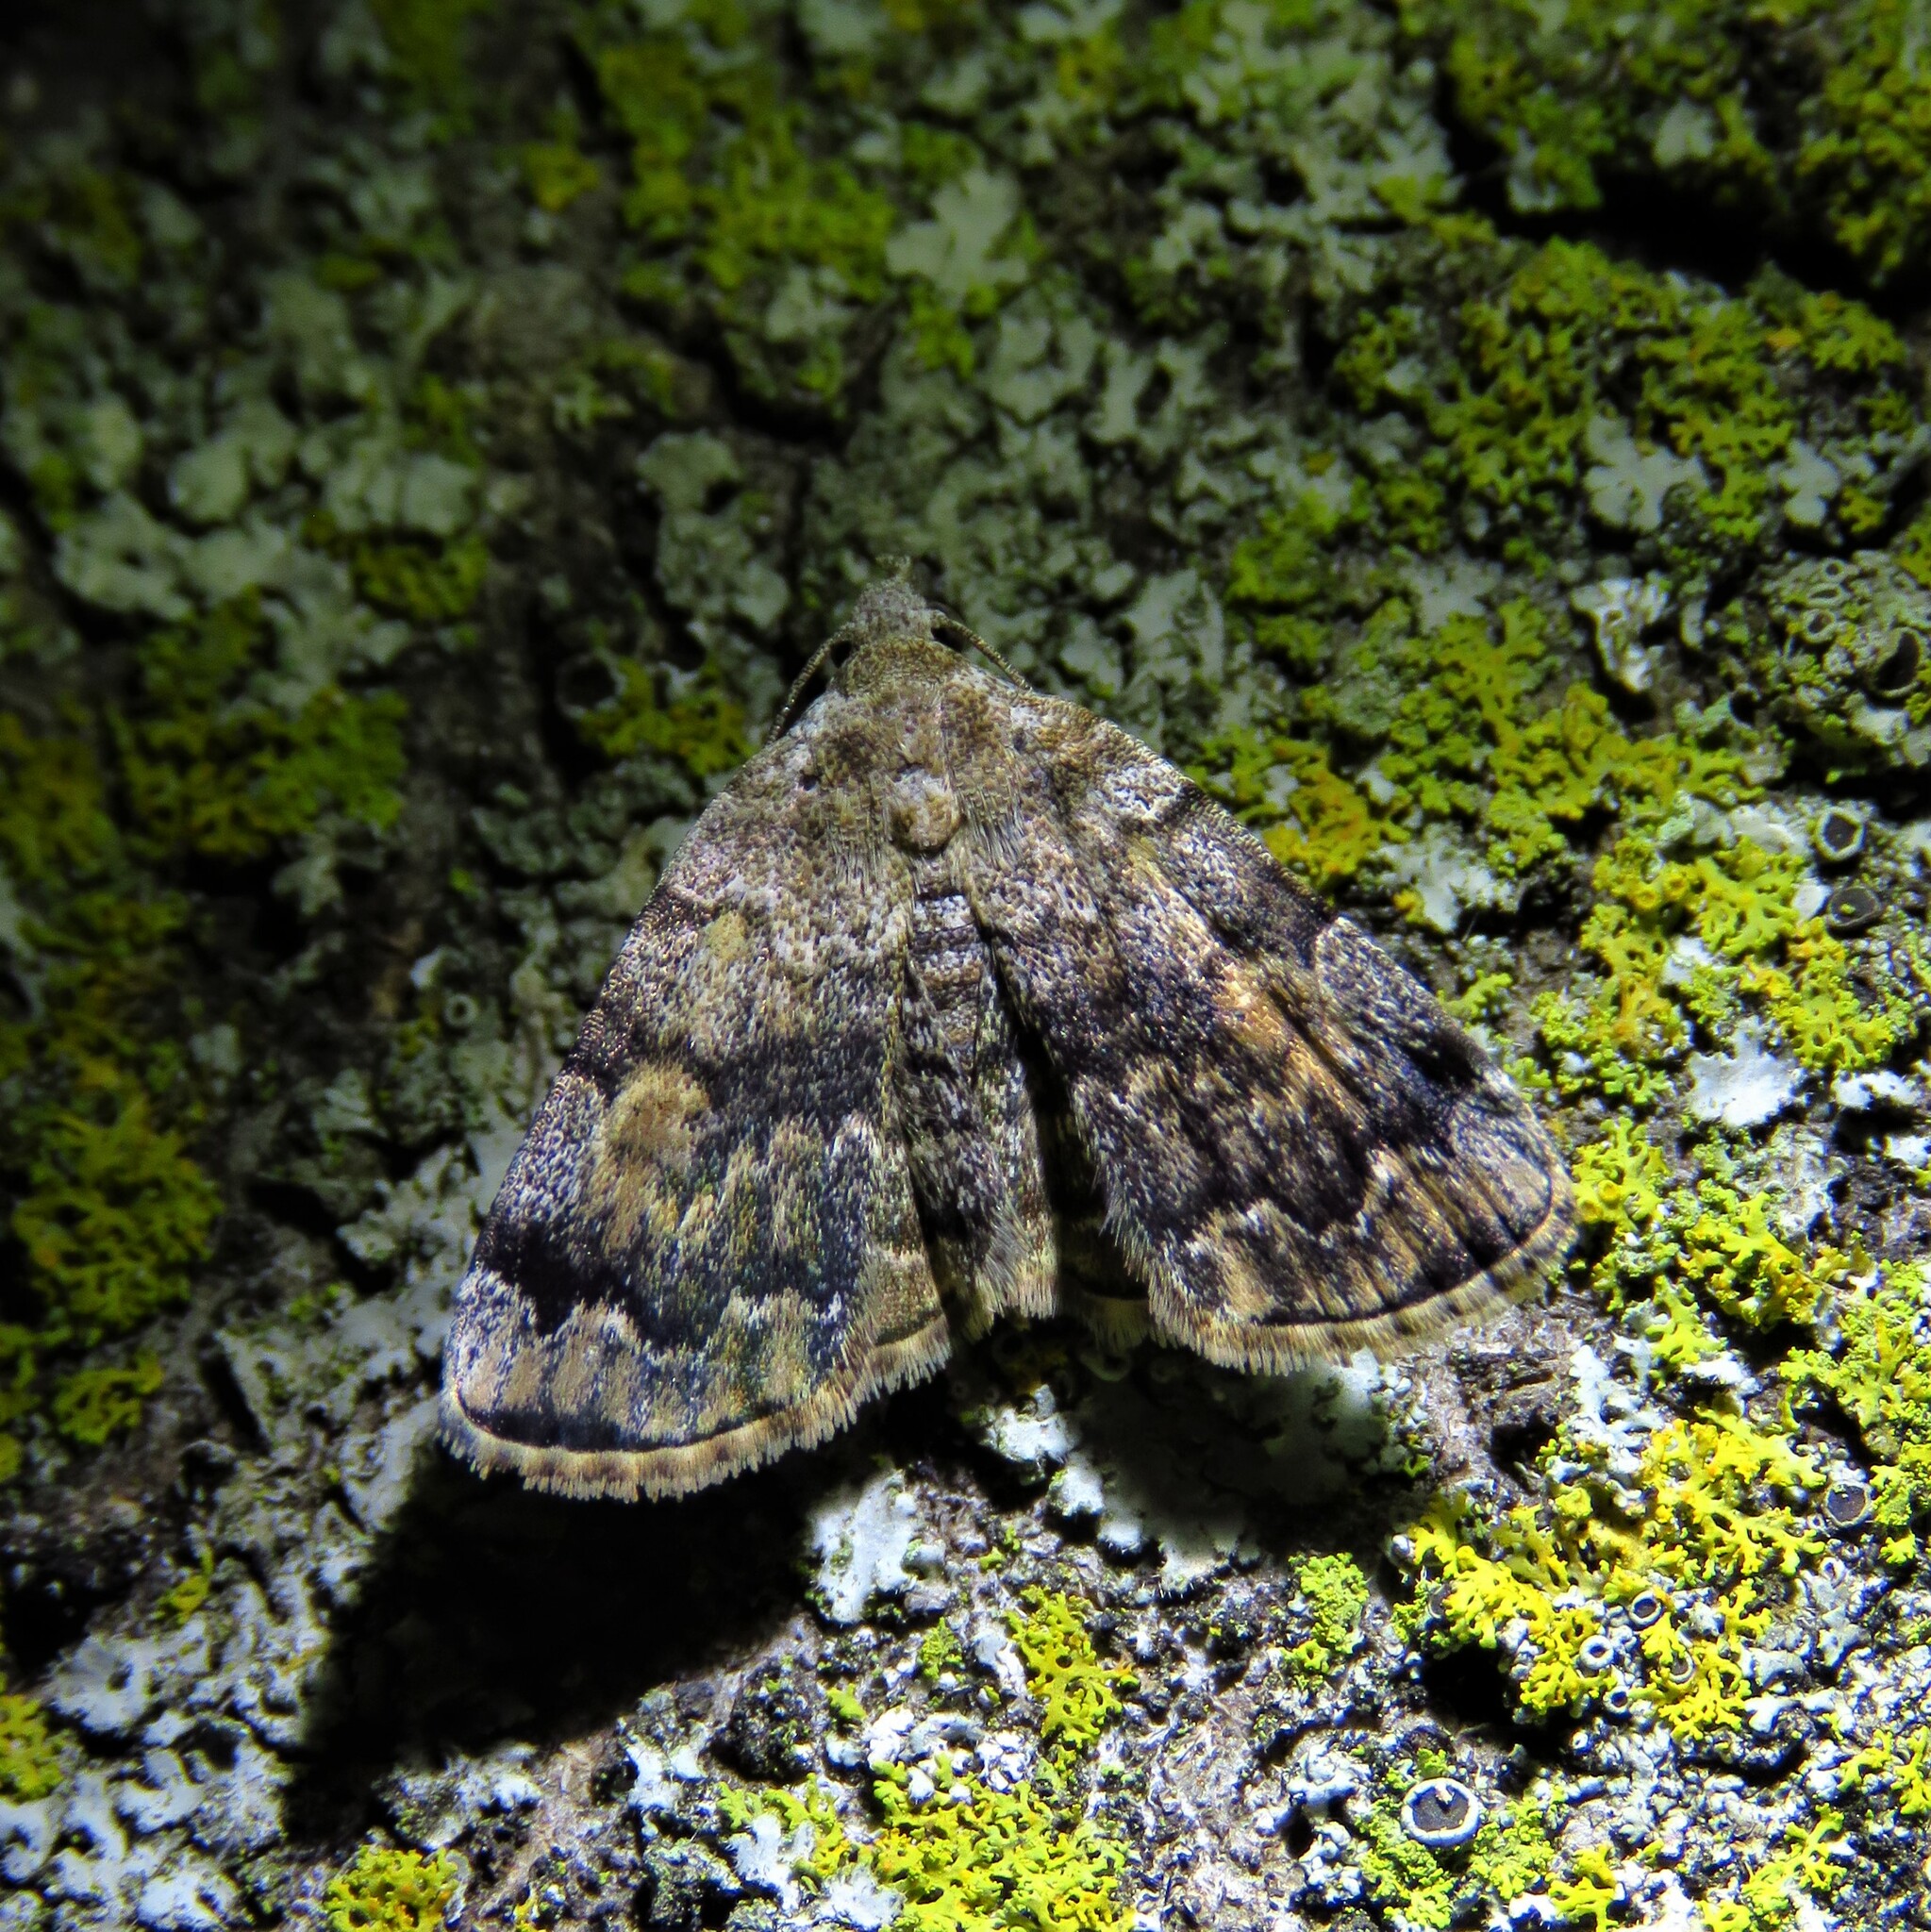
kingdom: Animalia
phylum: Arthropoda
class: Insecta
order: Lepidoptera
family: Erebidae
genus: Idia
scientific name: Idia americalis
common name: American idia moth
